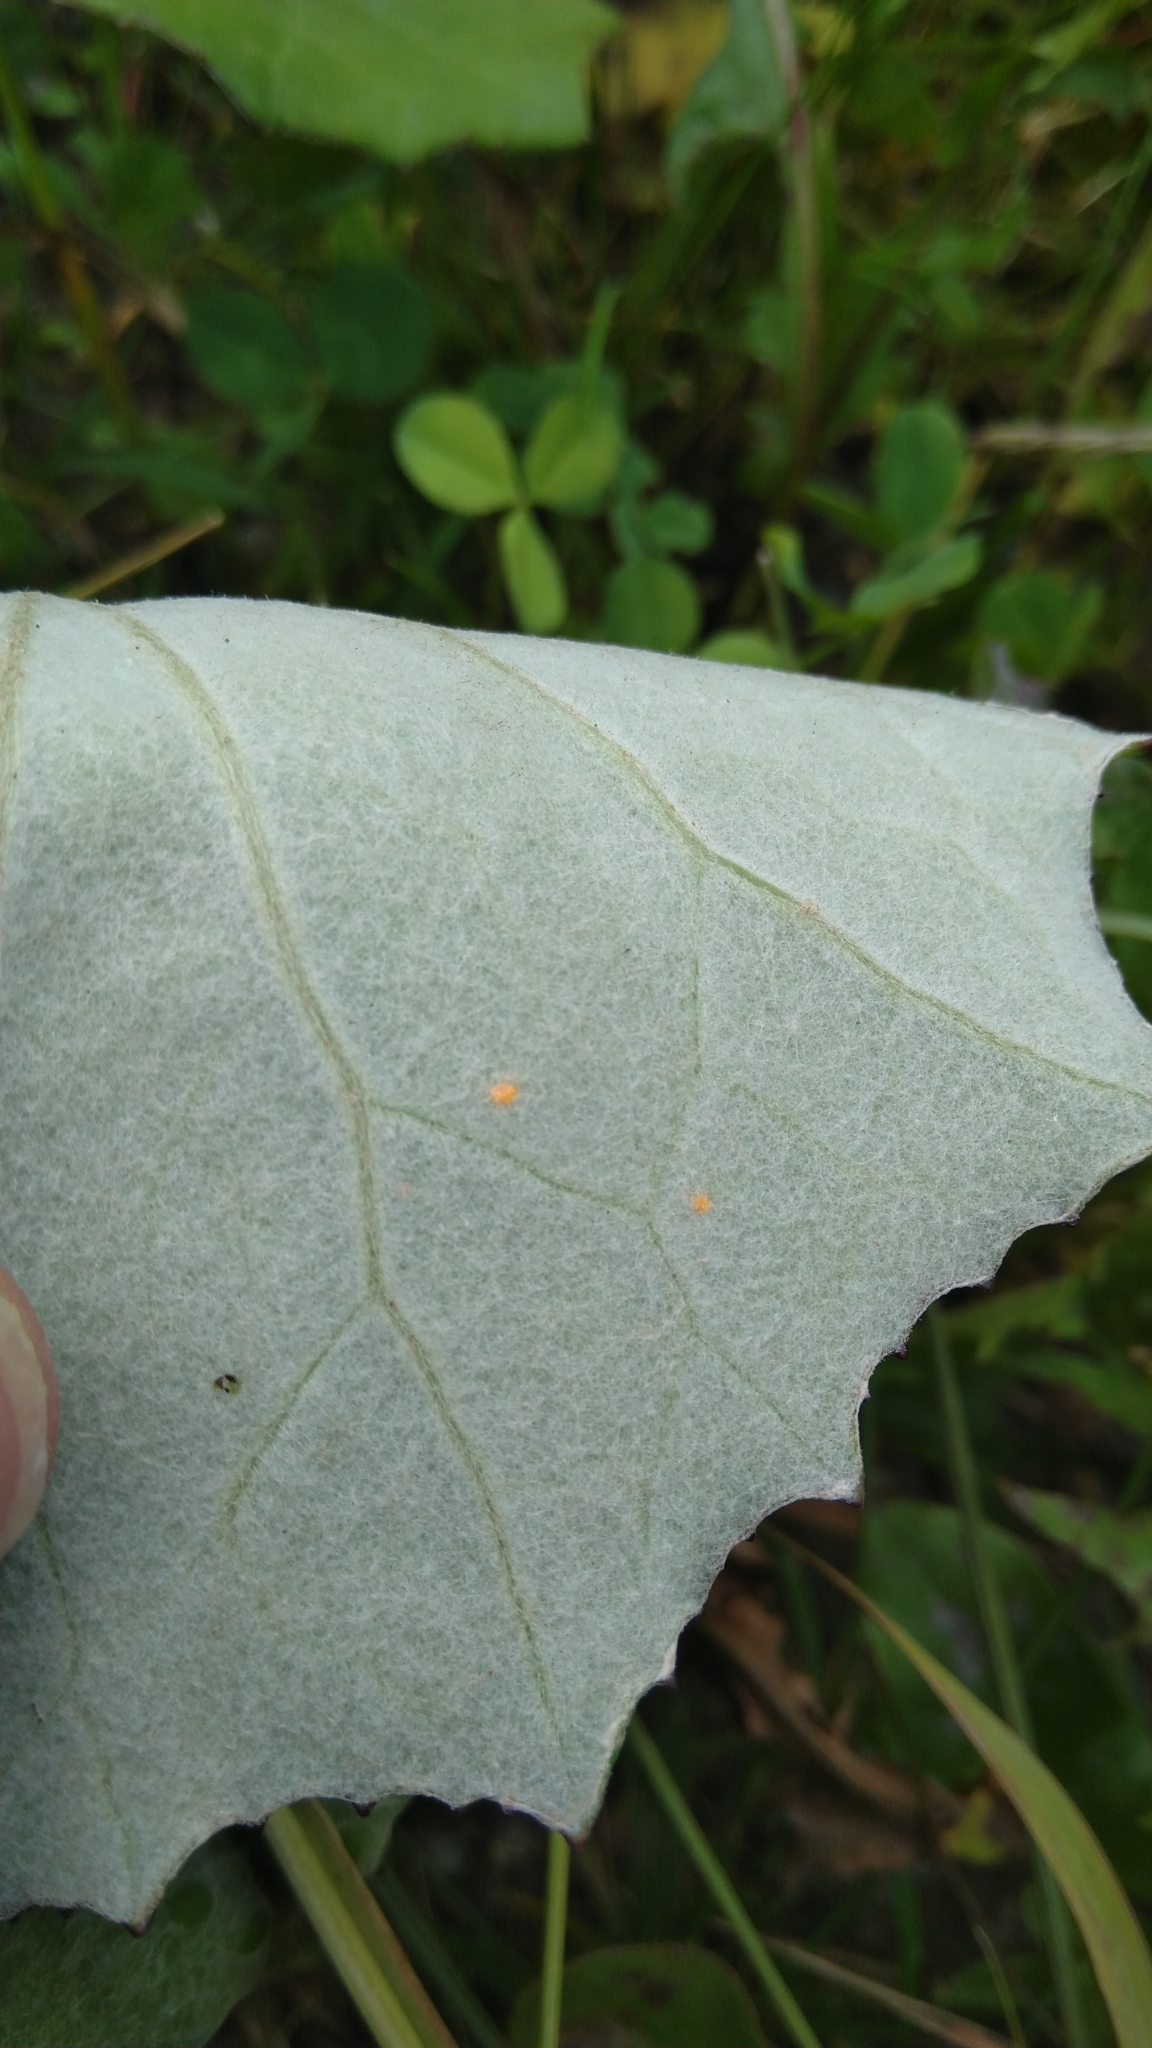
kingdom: Fungi
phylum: Basidiomycota
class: Pucciniomycetes
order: Pucciniales
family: Coleosporiaceae
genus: Coleosporium
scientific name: Coleosporium tussilaginis
